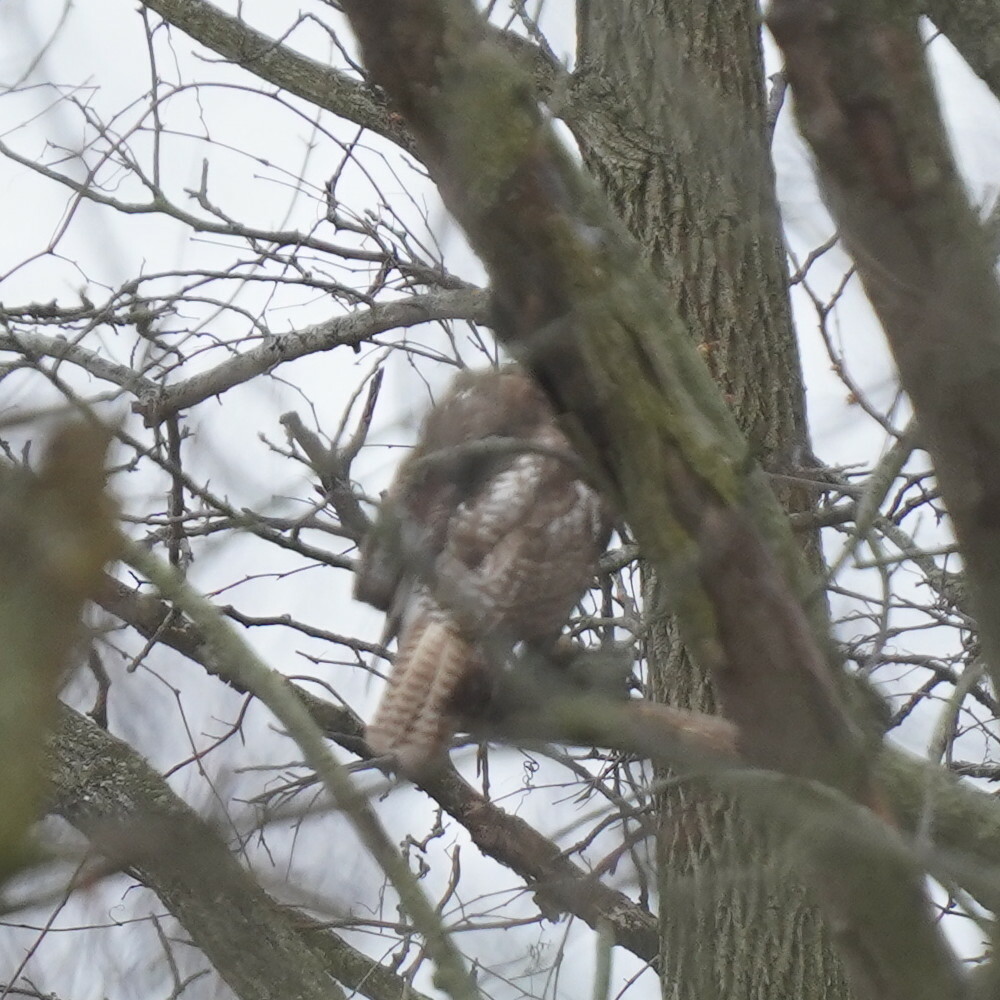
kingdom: Animalia
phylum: Chordata
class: Aves
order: Accipitriformes
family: Accipitridae
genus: Buteo
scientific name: Buteo jamaicensis
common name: Red-tailed hawk
